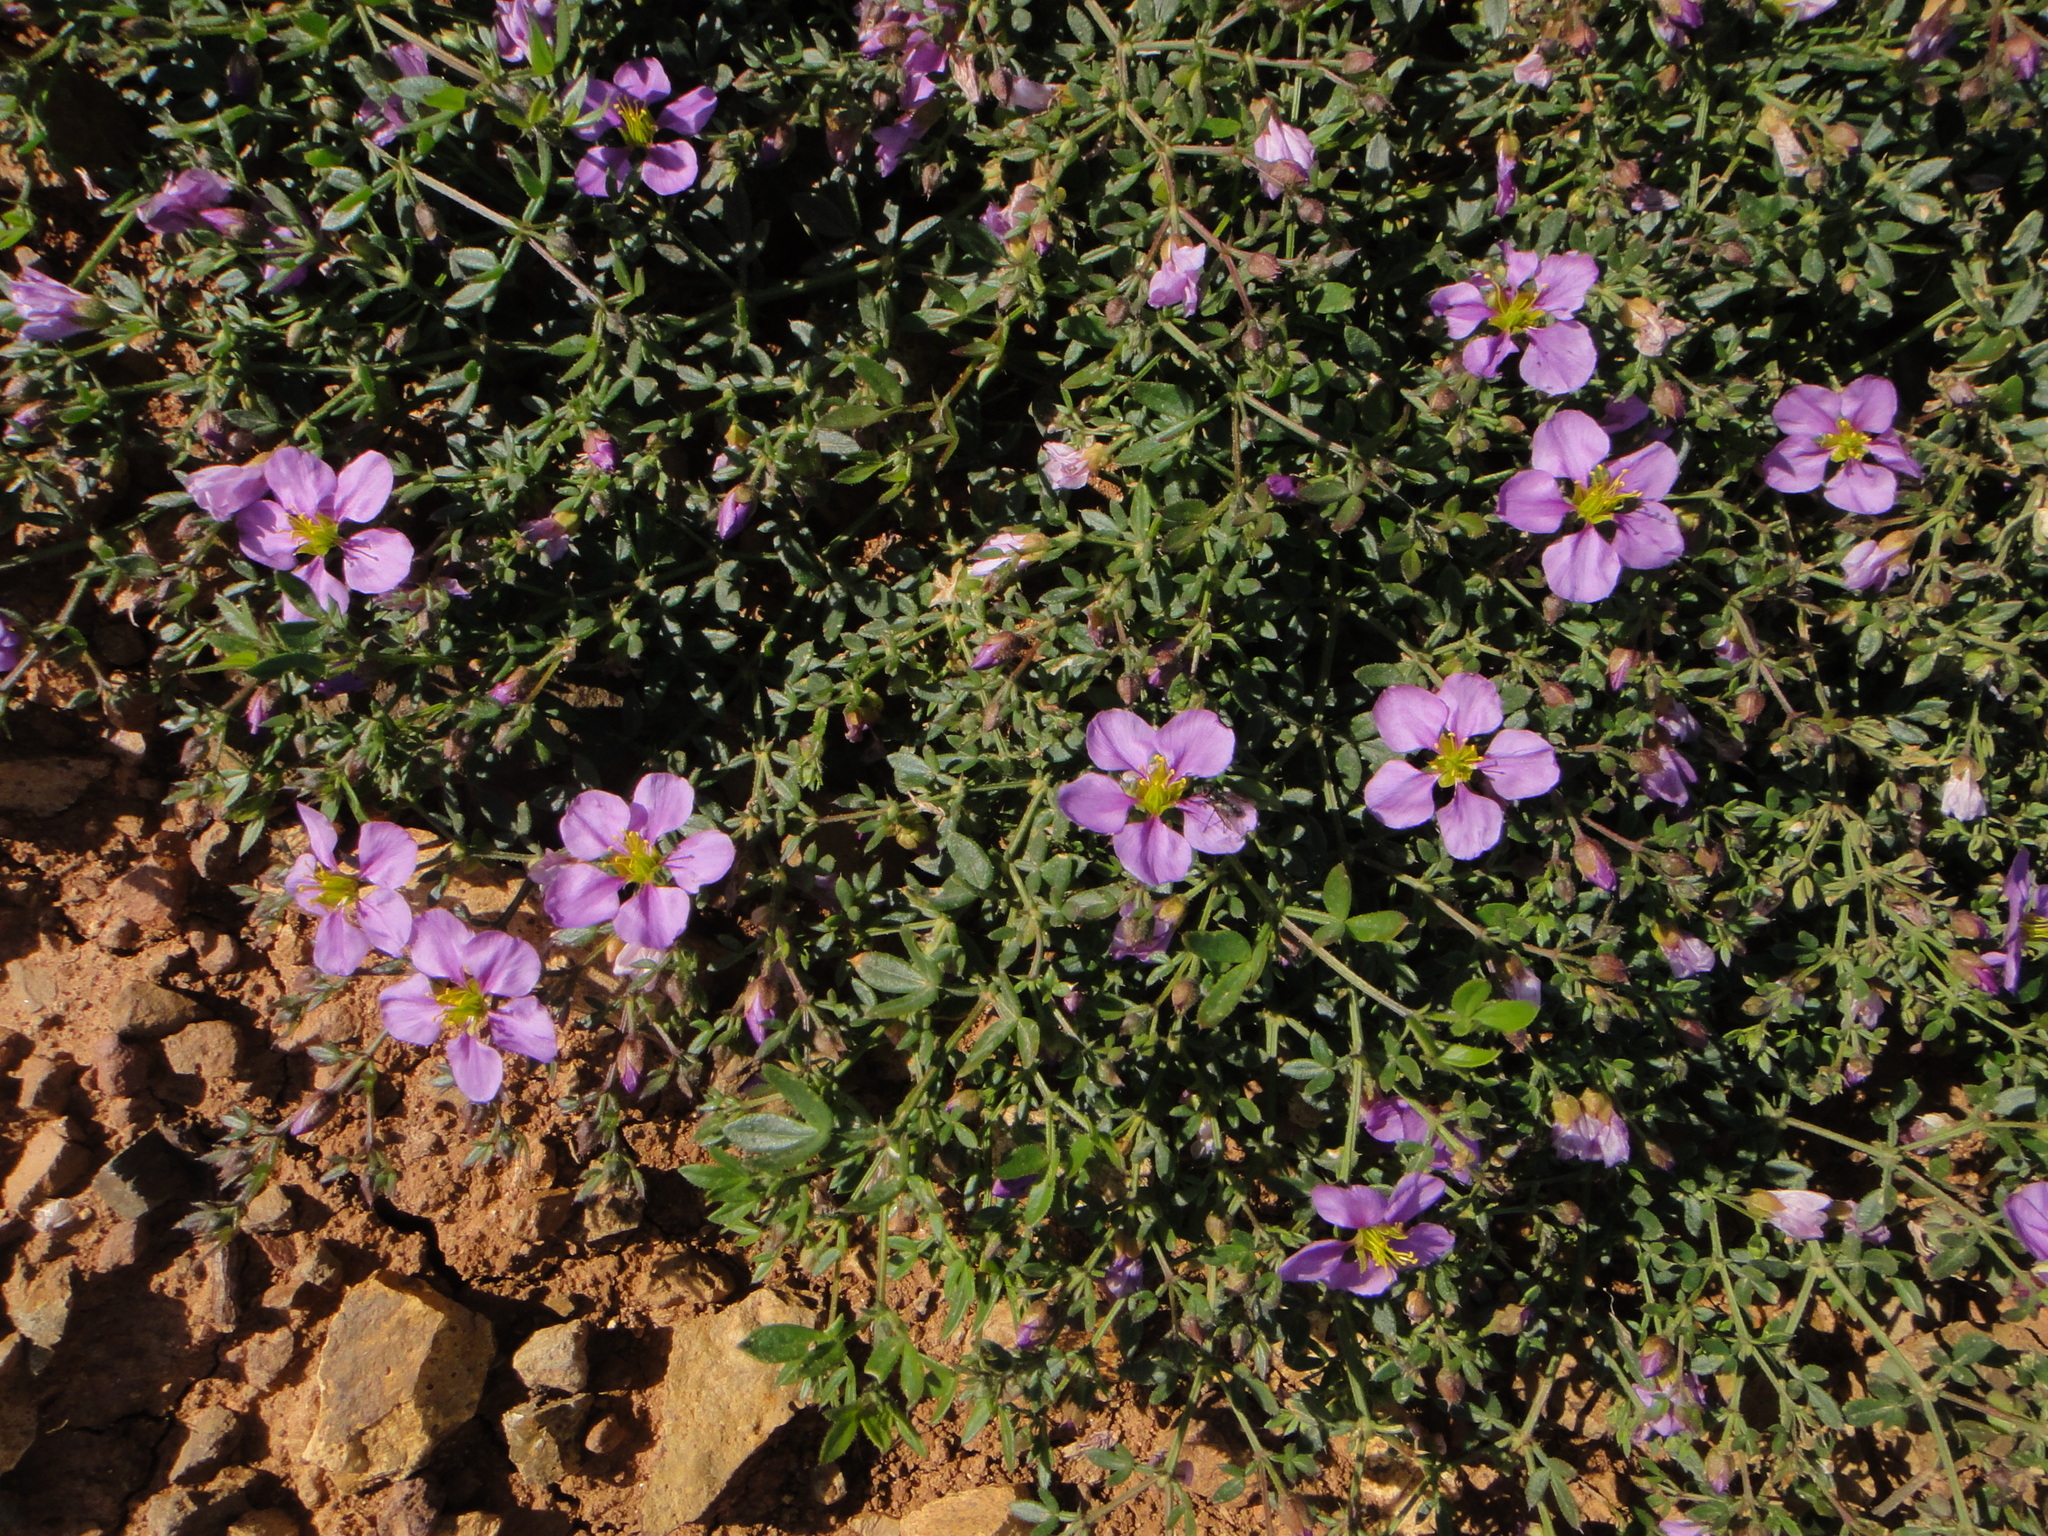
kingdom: Plantae
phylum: Tracheophyta
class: Magnoliopsida
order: Zygophyllales
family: Zygophyllaceae
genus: Fagonia
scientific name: Fagonia cretica
